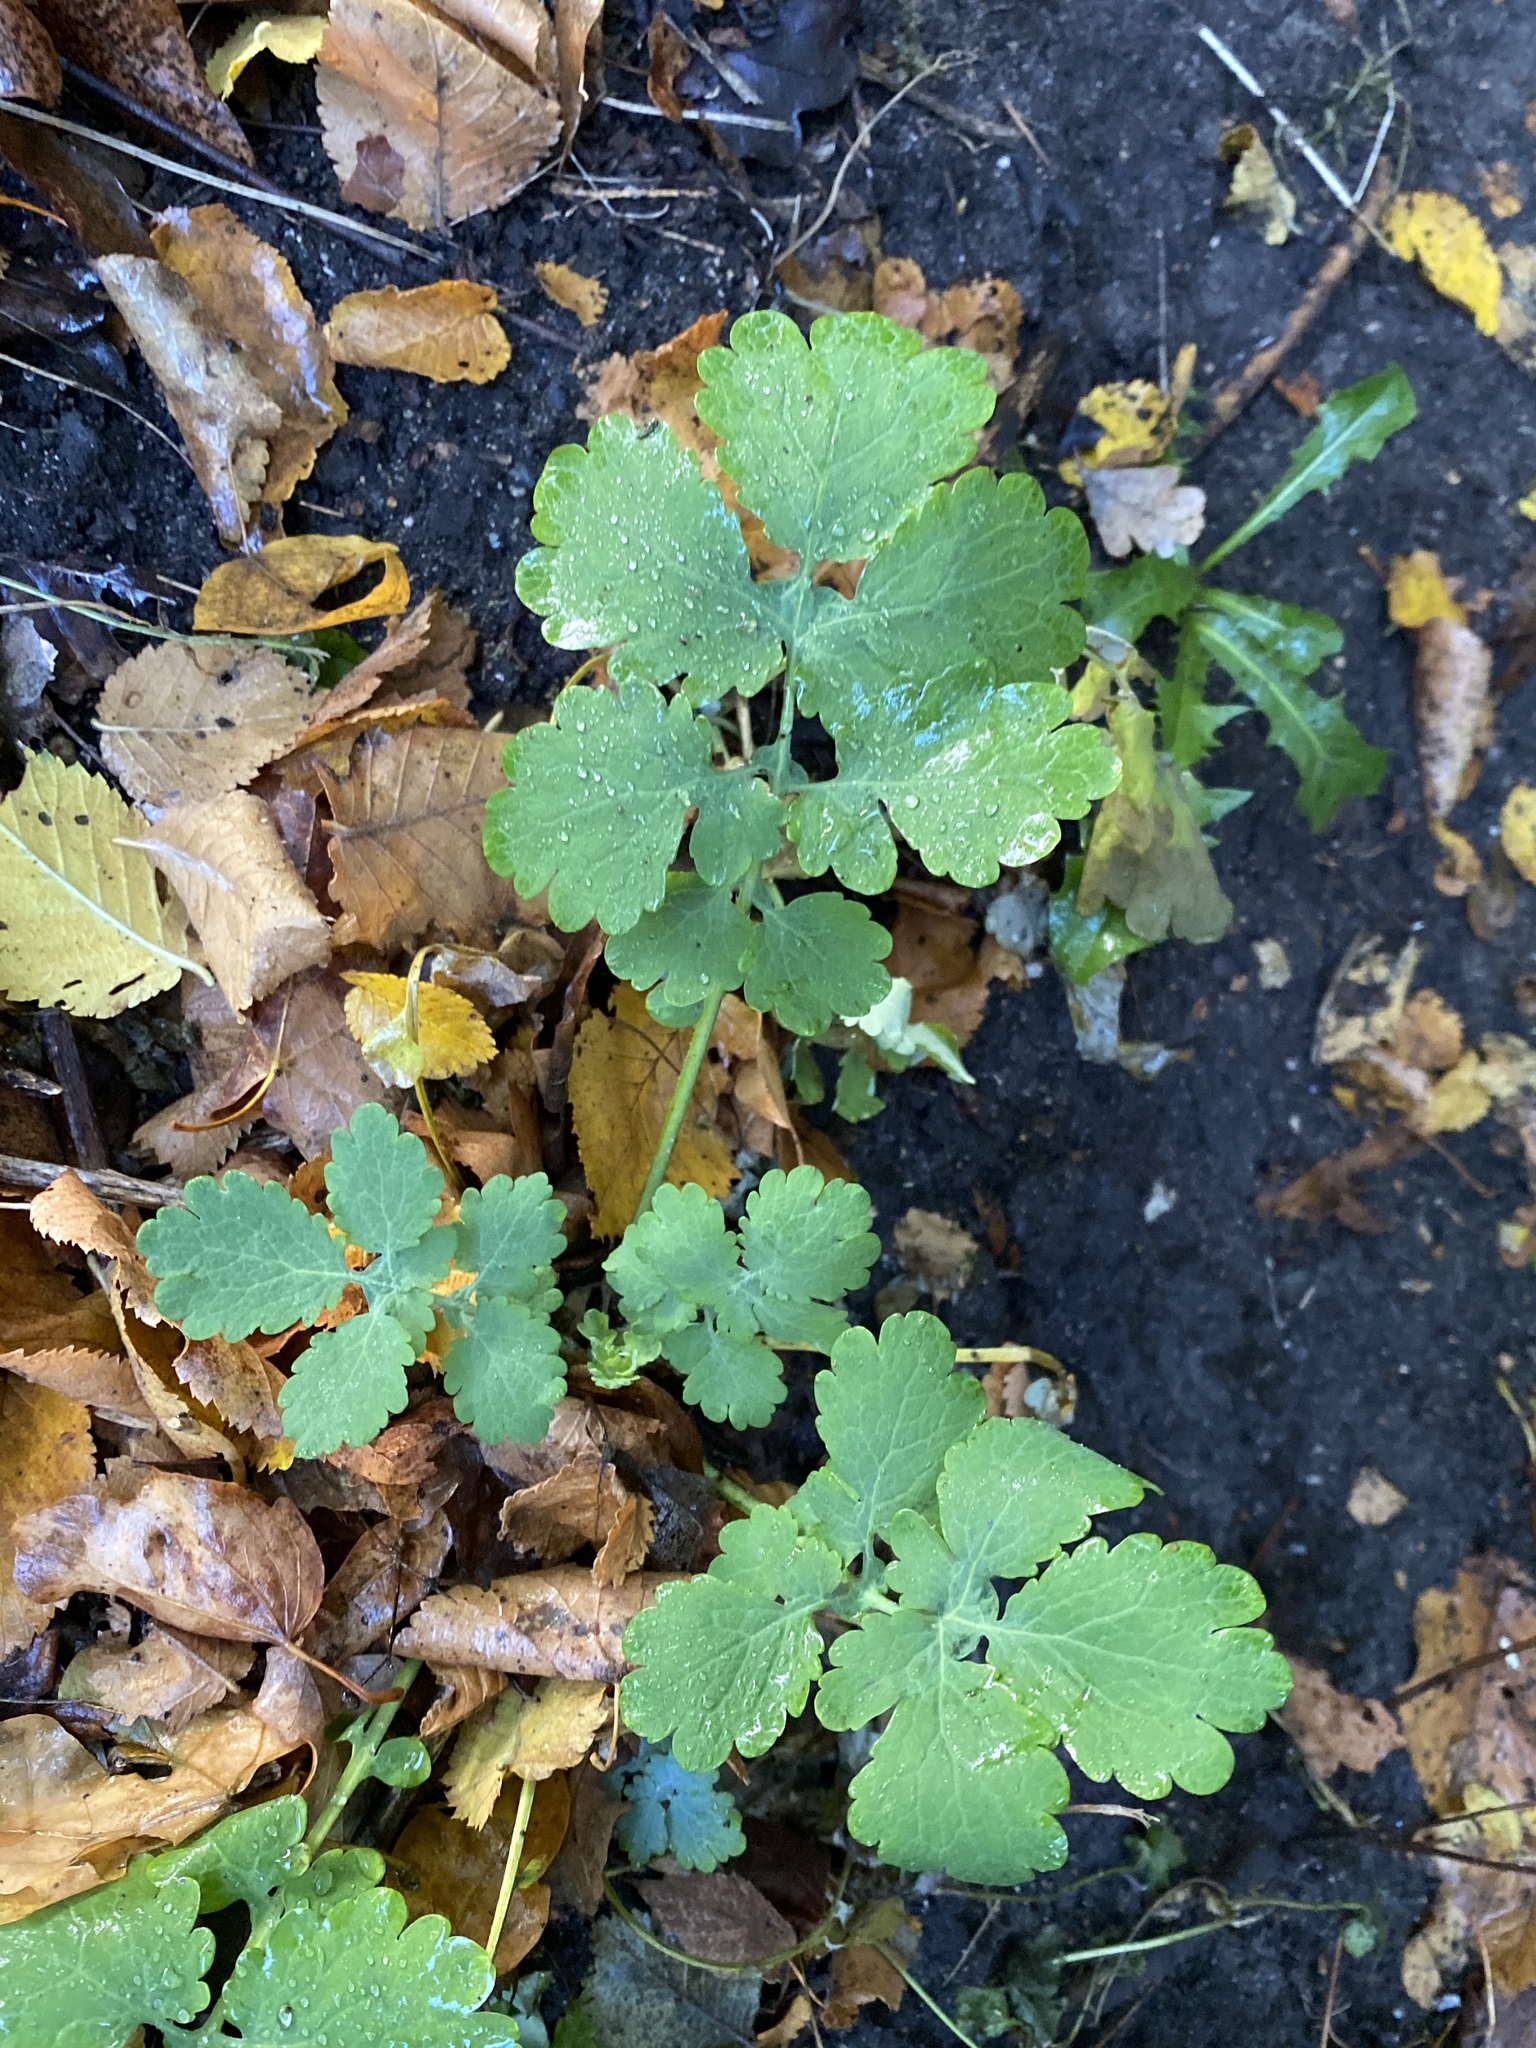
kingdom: Plantae
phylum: Tracheophyta
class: Magnoliopsida
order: Ranunculales
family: Papaveraceae
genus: Chelidonium
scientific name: Chelidonium majus
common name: Greater celandine
